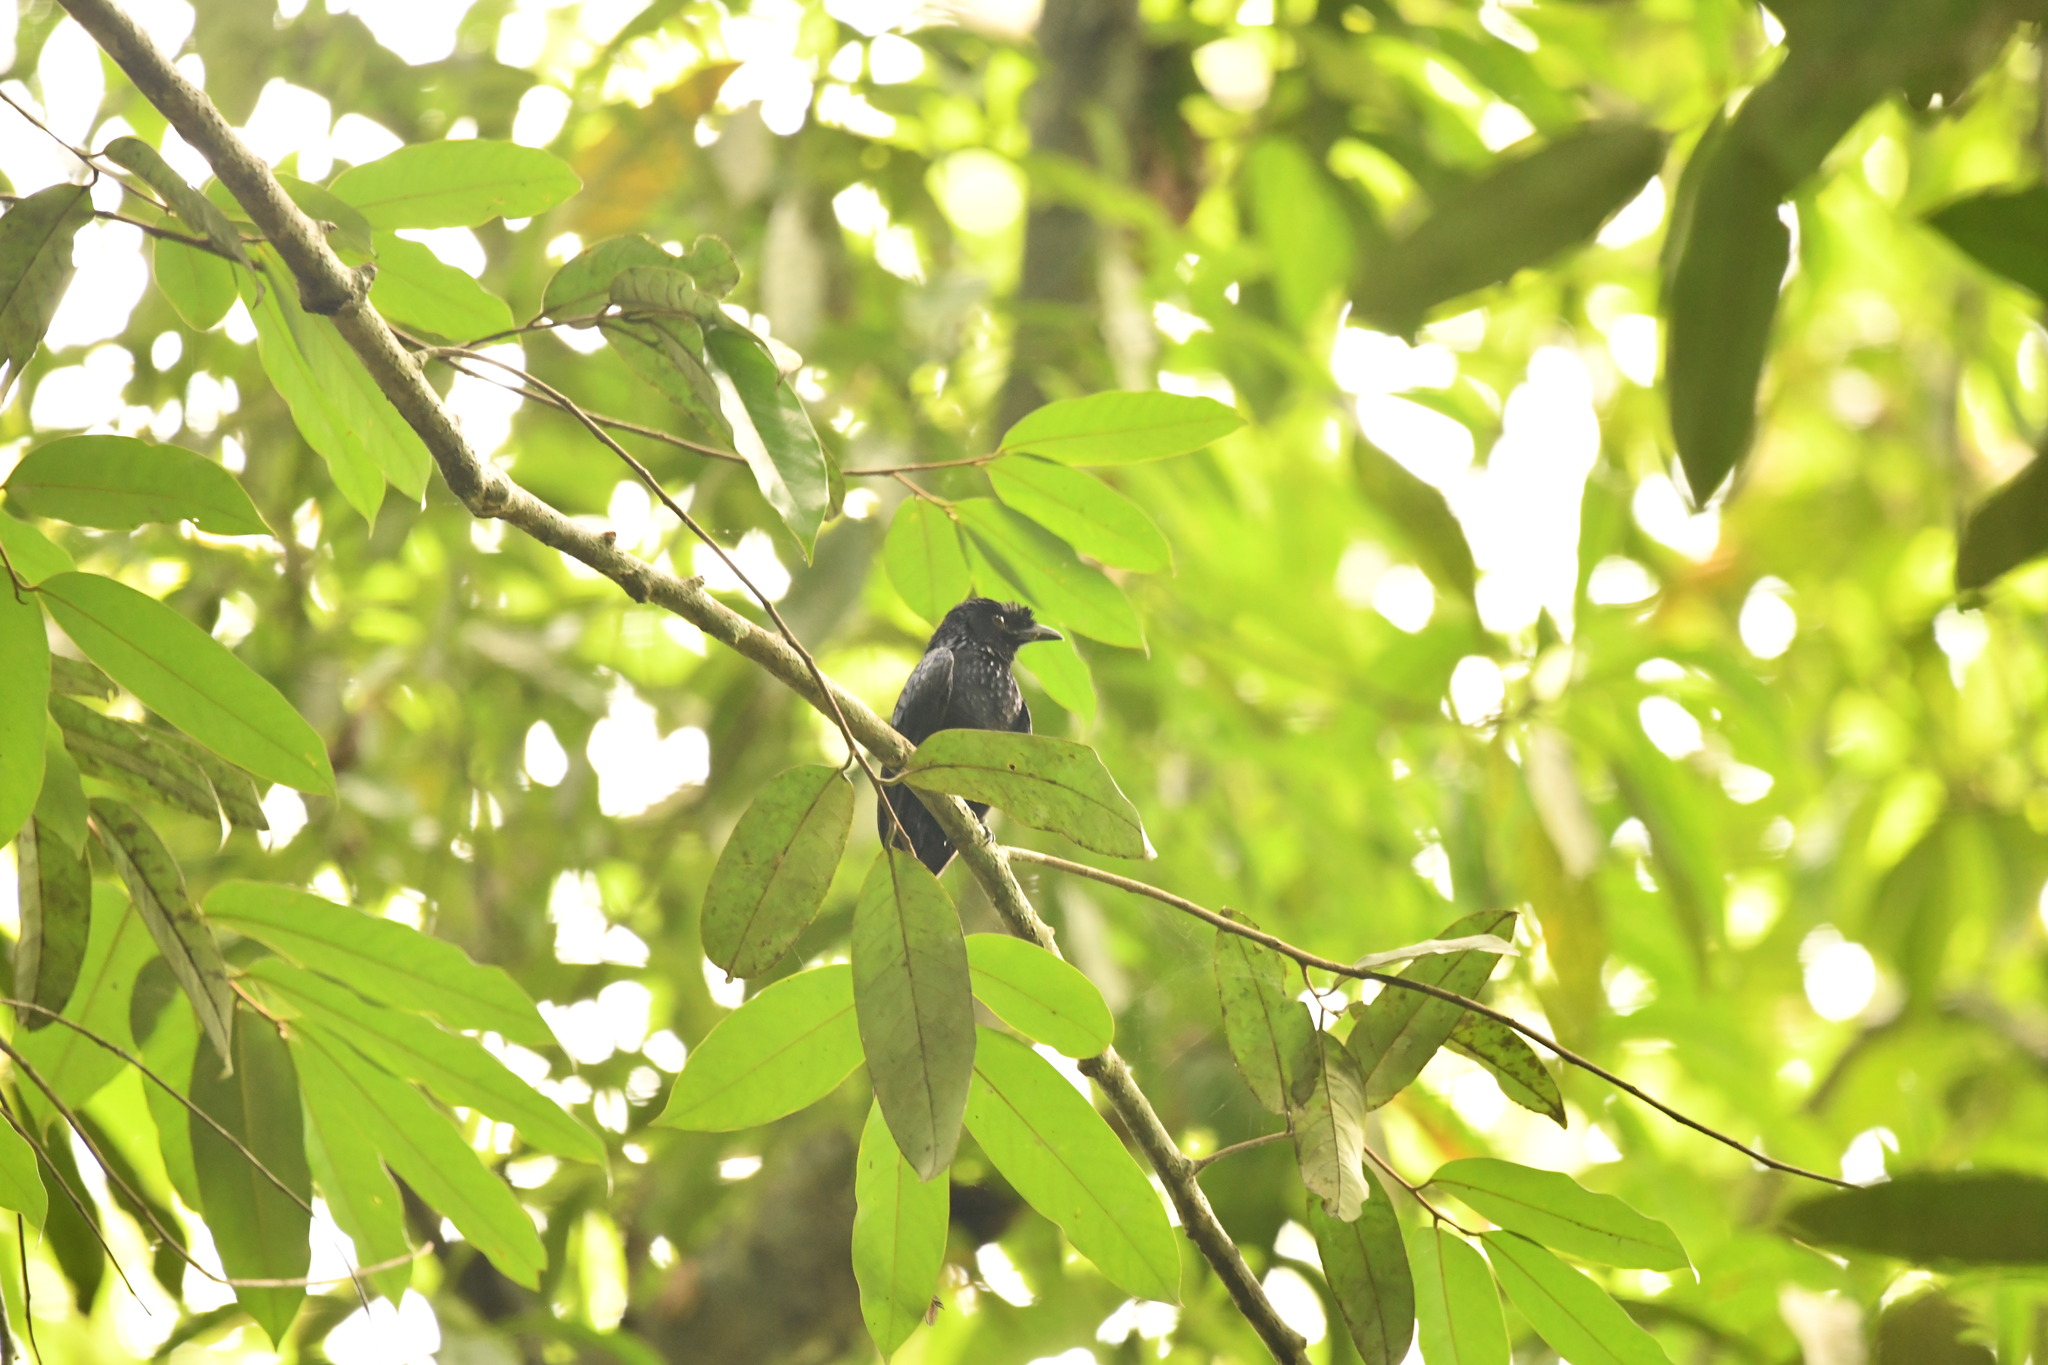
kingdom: Animalia
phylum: Chordata
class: Aves
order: Passeriformes
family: Dicruridae
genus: Dicrurus
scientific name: Dicrurus paradiseus
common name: Greater racket-tailed drongo
